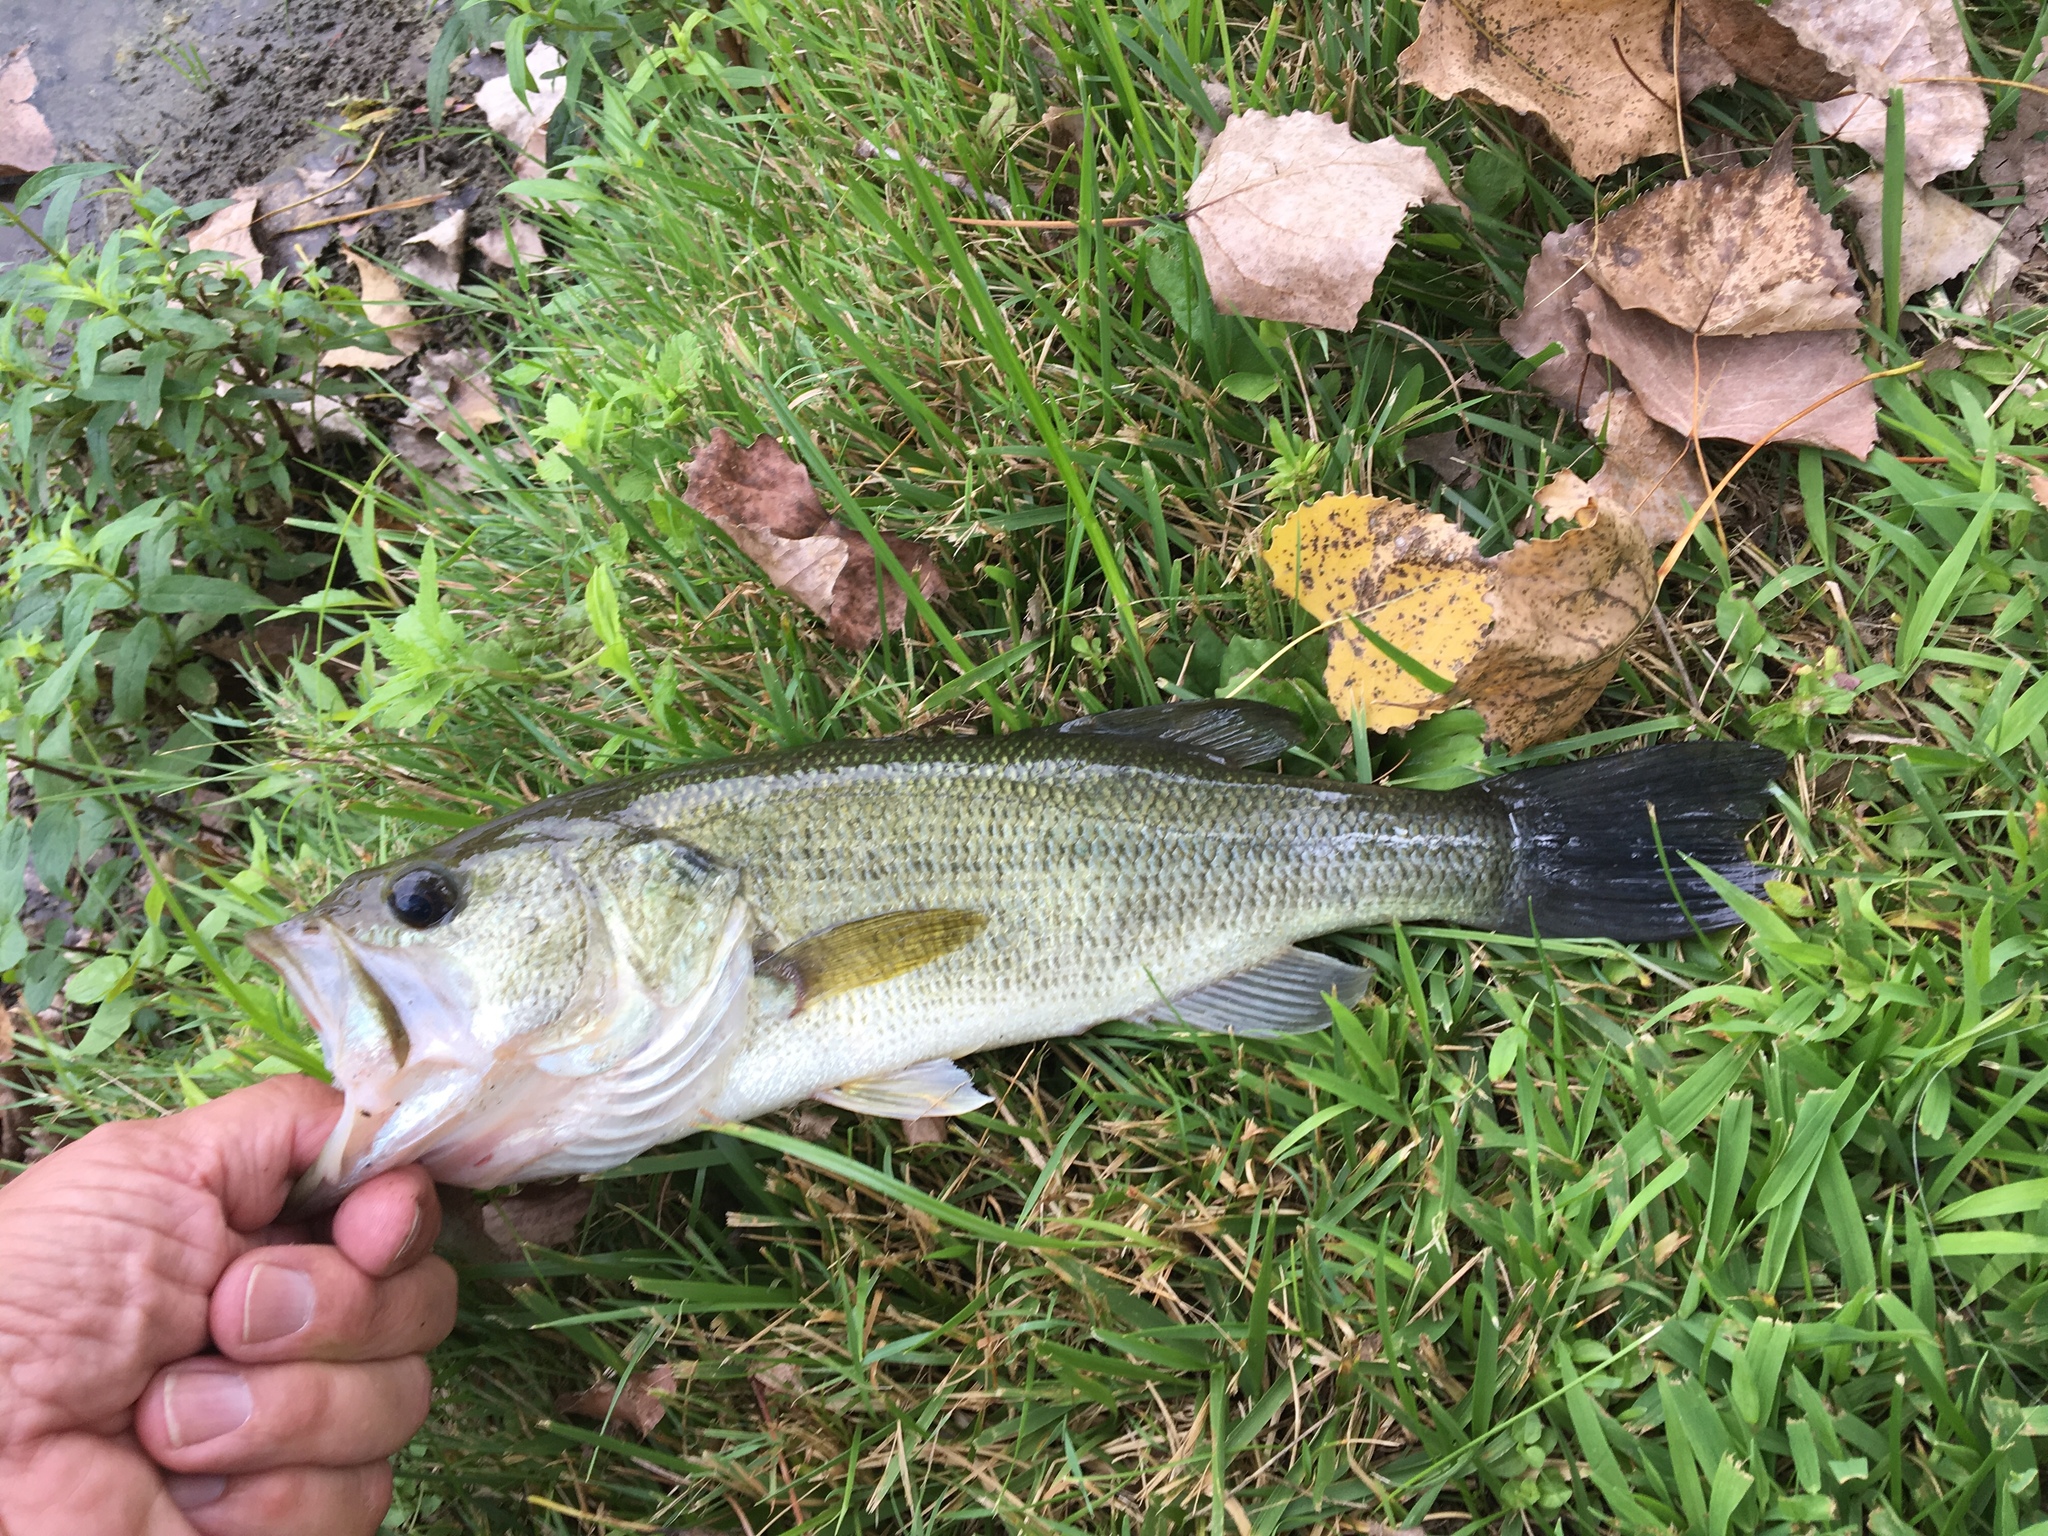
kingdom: Animalia
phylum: Chordata
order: Perciformes
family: Centrarchidae
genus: Micropterus
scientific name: Micropterus
